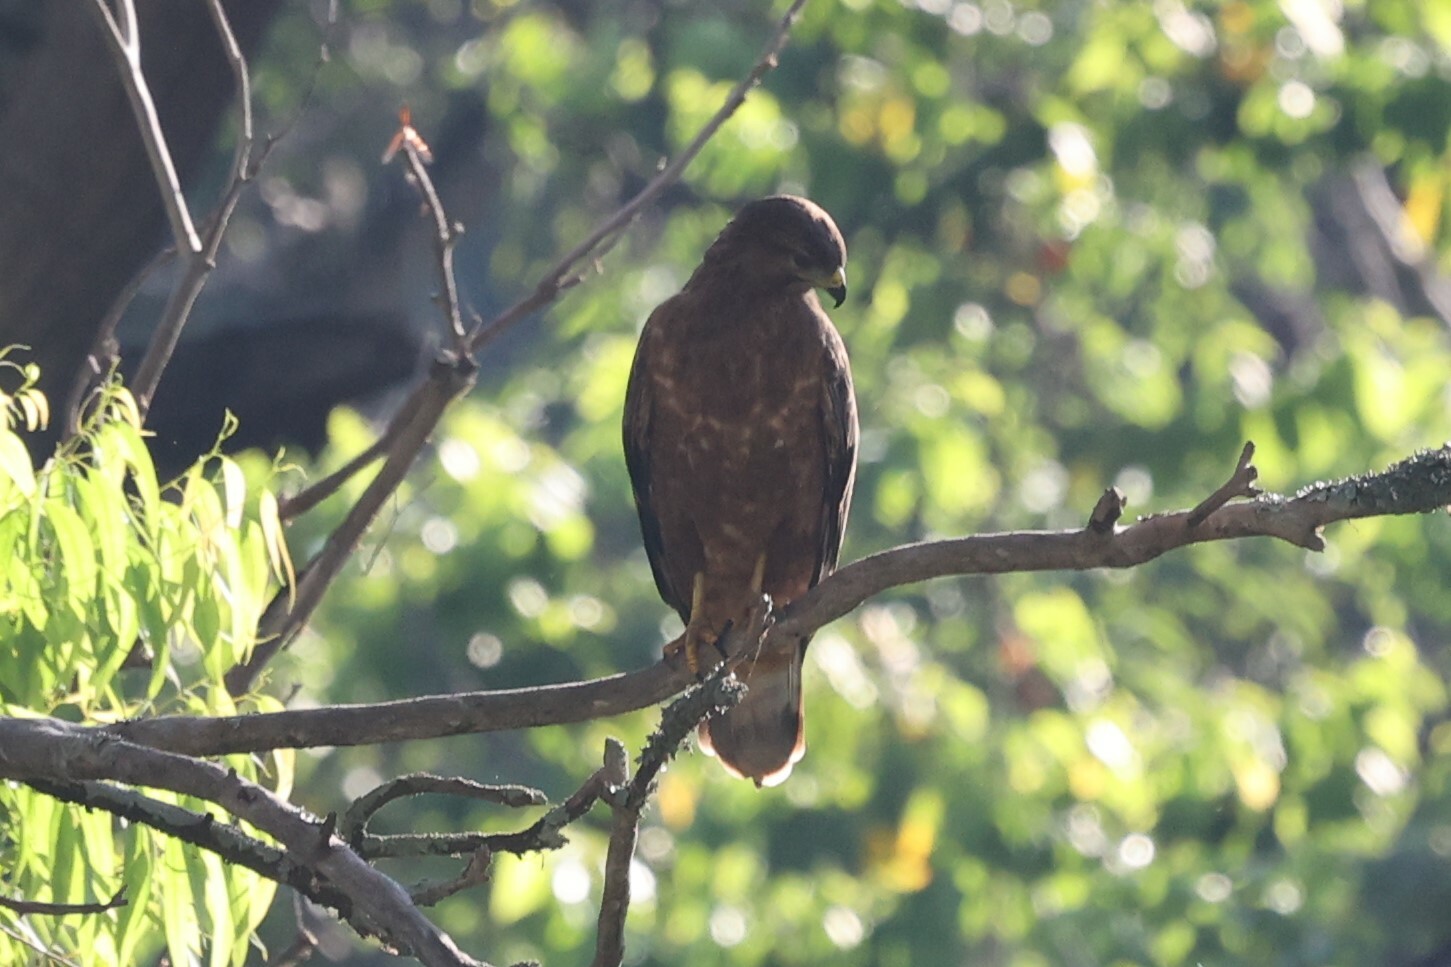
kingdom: Animalia
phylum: Chordata
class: Aves
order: Accipitriformes
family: Accipitridae
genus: Buteo
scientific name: Buteo buteo
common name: Common buzzard
